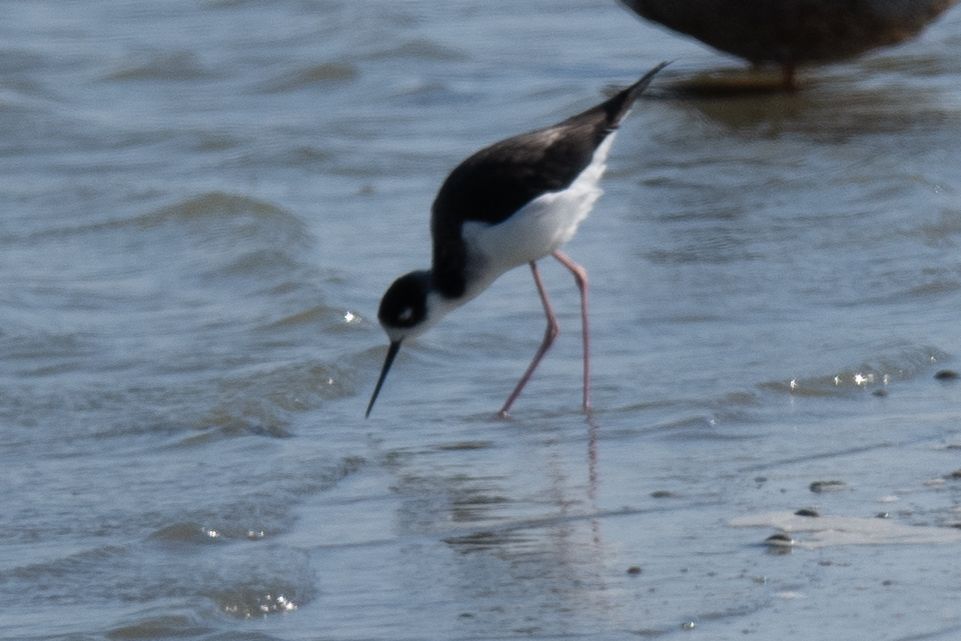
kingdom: Animalia
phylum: Chordata
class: Aves
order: Charadriiformes
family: Recurvirostridae
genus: Himantopus
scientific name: Himantopus mexicanus
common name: Black-necked stilt
